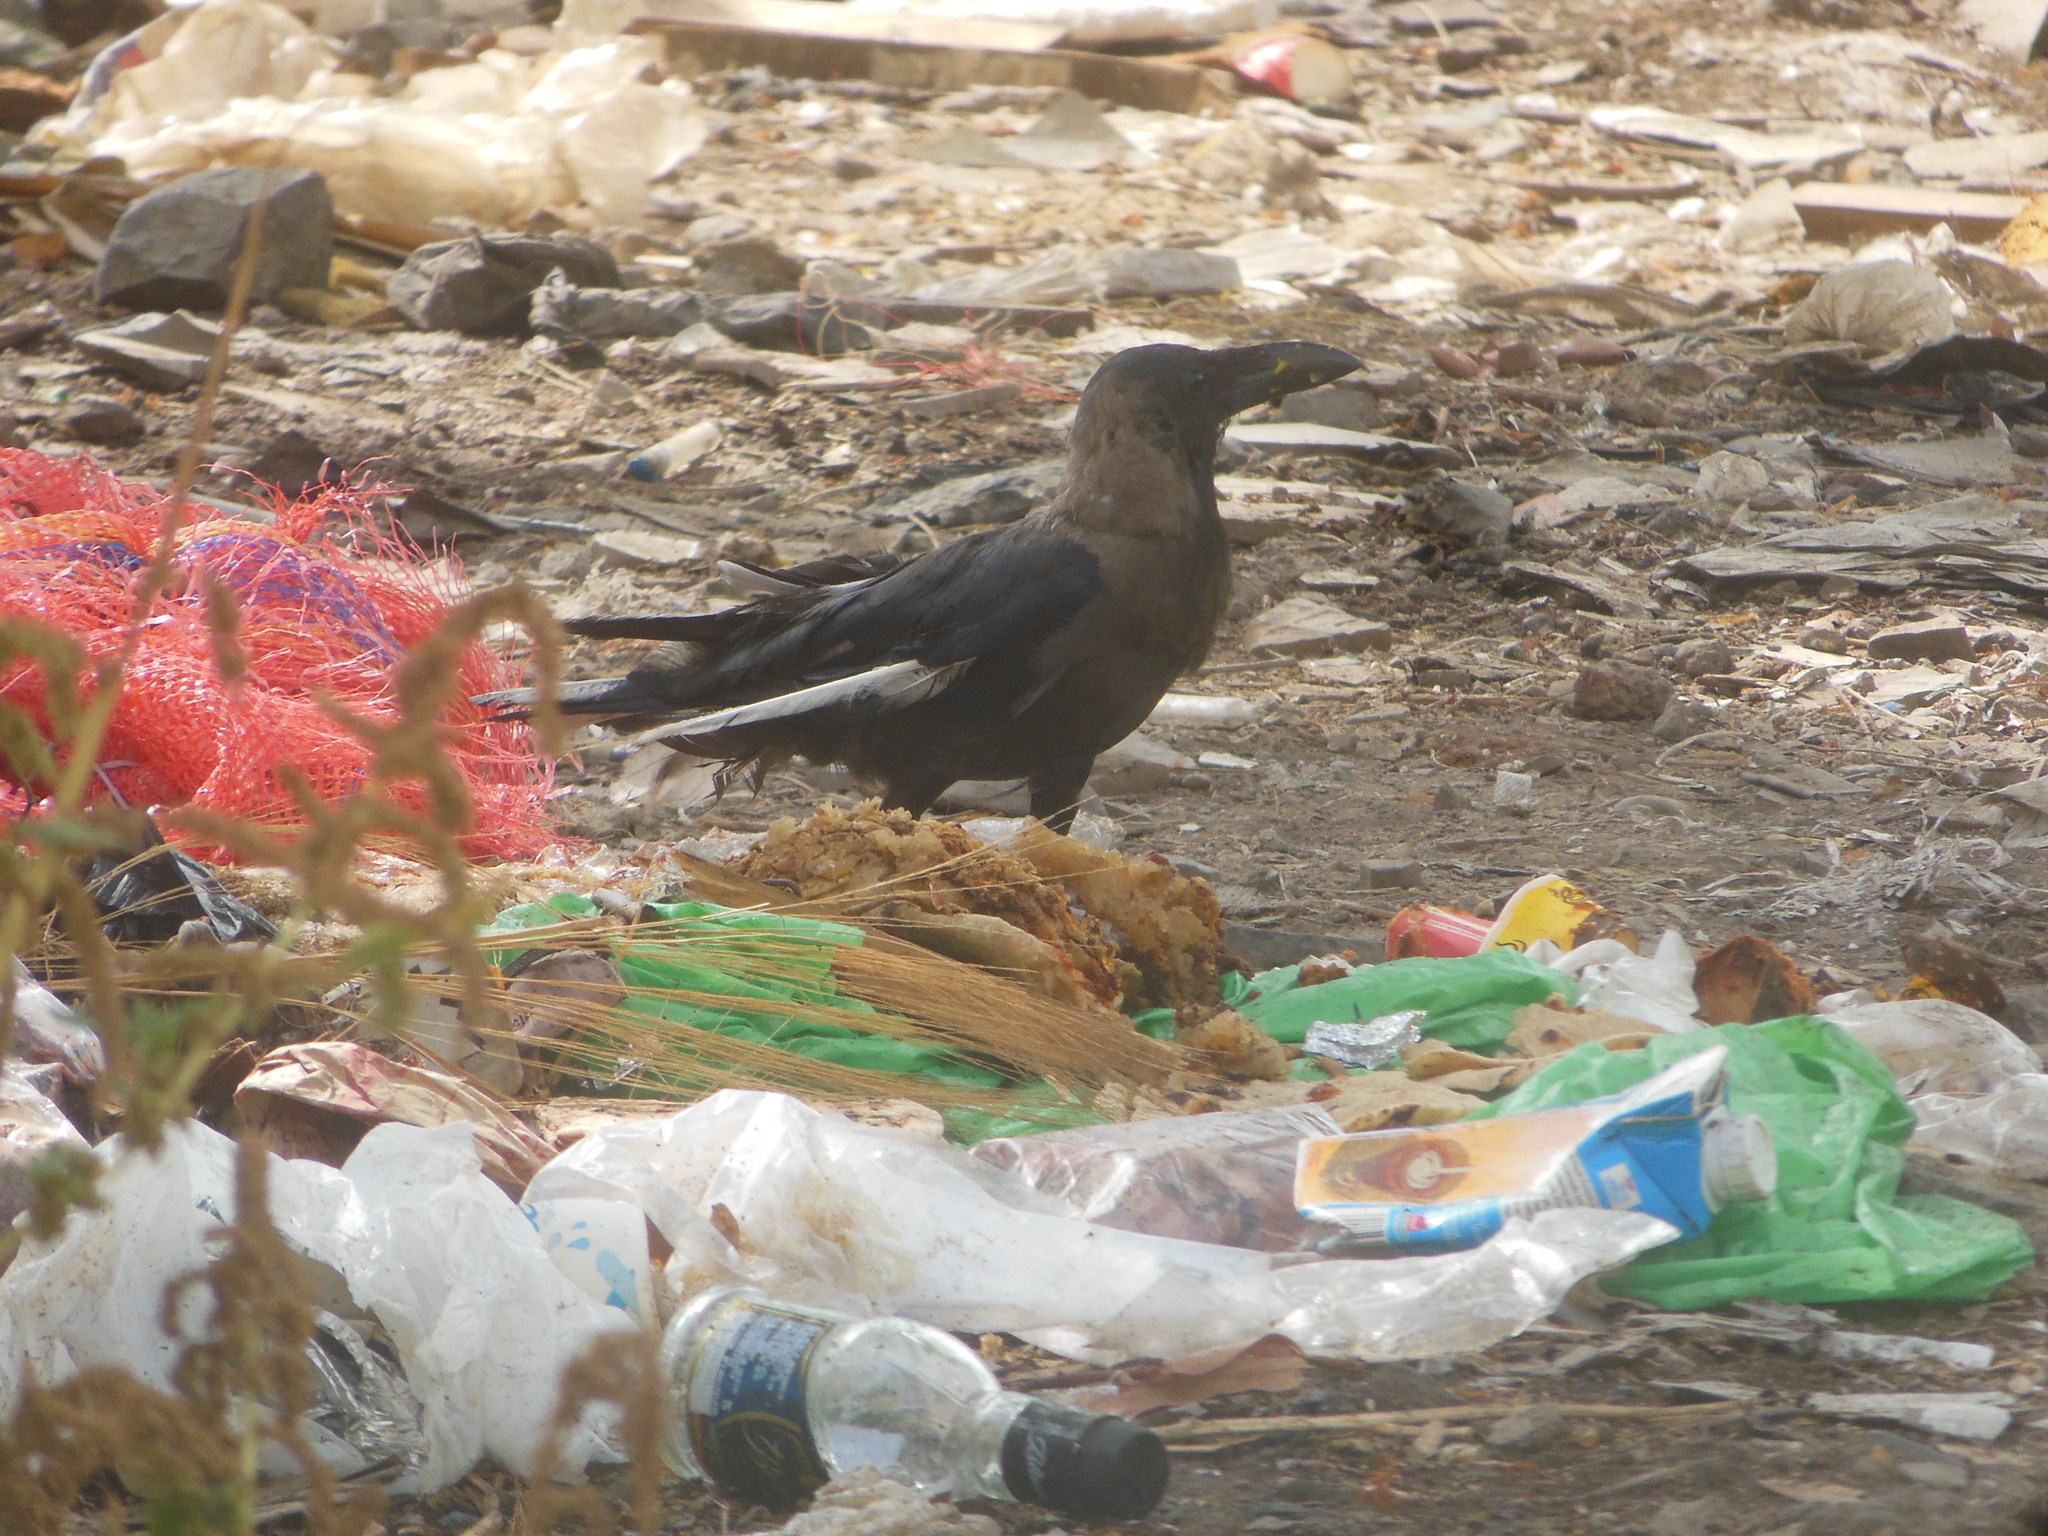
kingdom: Animalia
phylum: Chordata
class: Aves
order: Passeriformes
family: Corvidae
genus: Corvus
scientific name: Corvus splendens
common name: House crow
